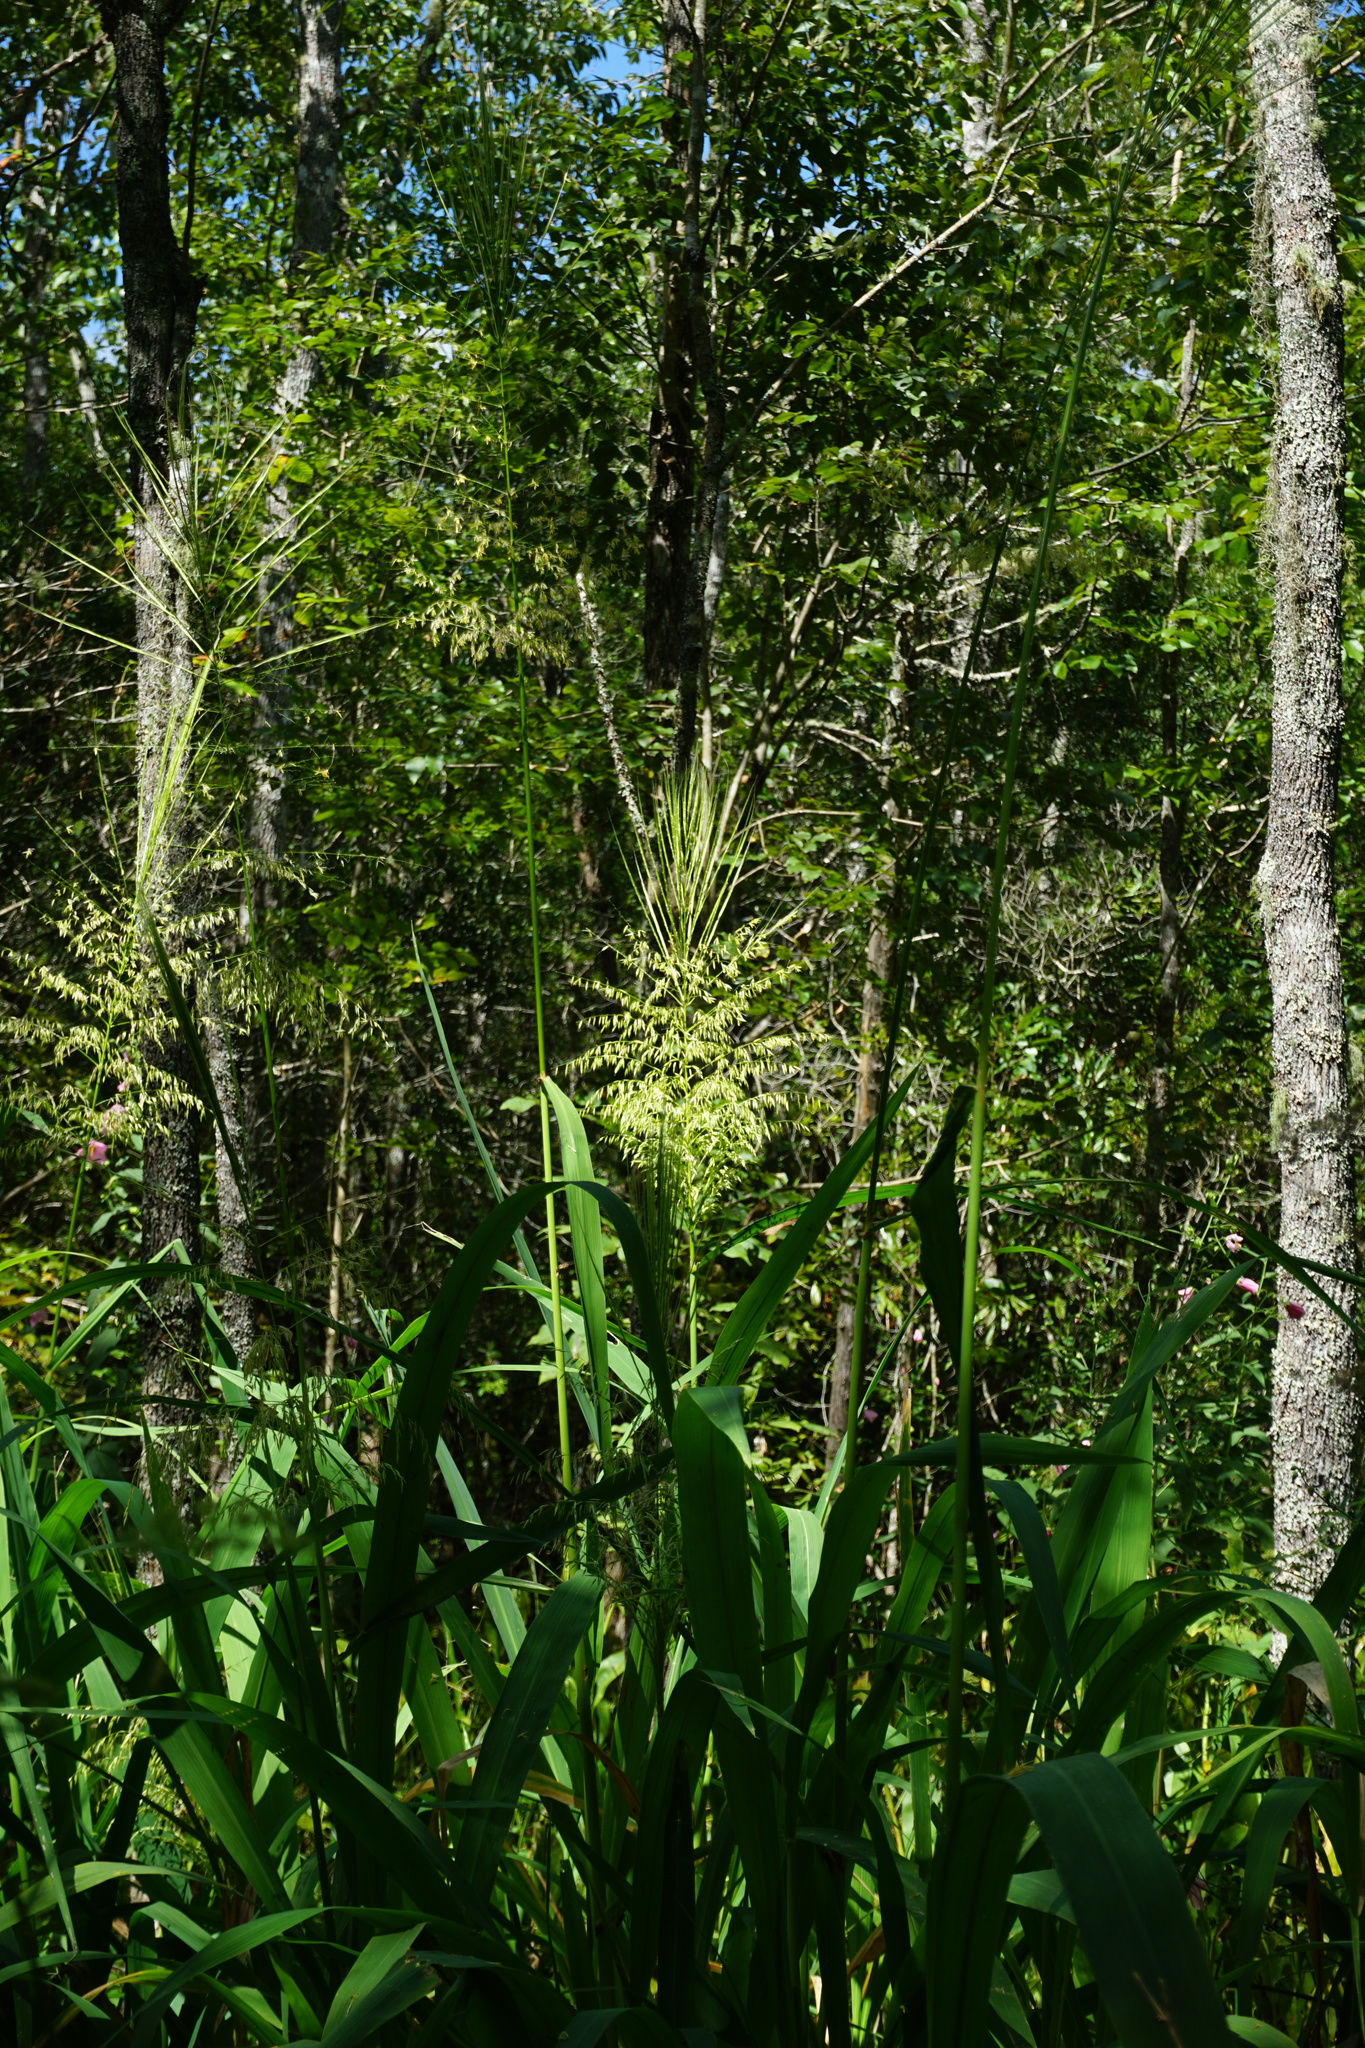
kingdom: Plantae
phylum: Tracheophyta
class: Liliopsida
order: Poales
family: Poaceae
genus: Zizania
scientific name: Zizania aquatica
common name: Annual wildrice
